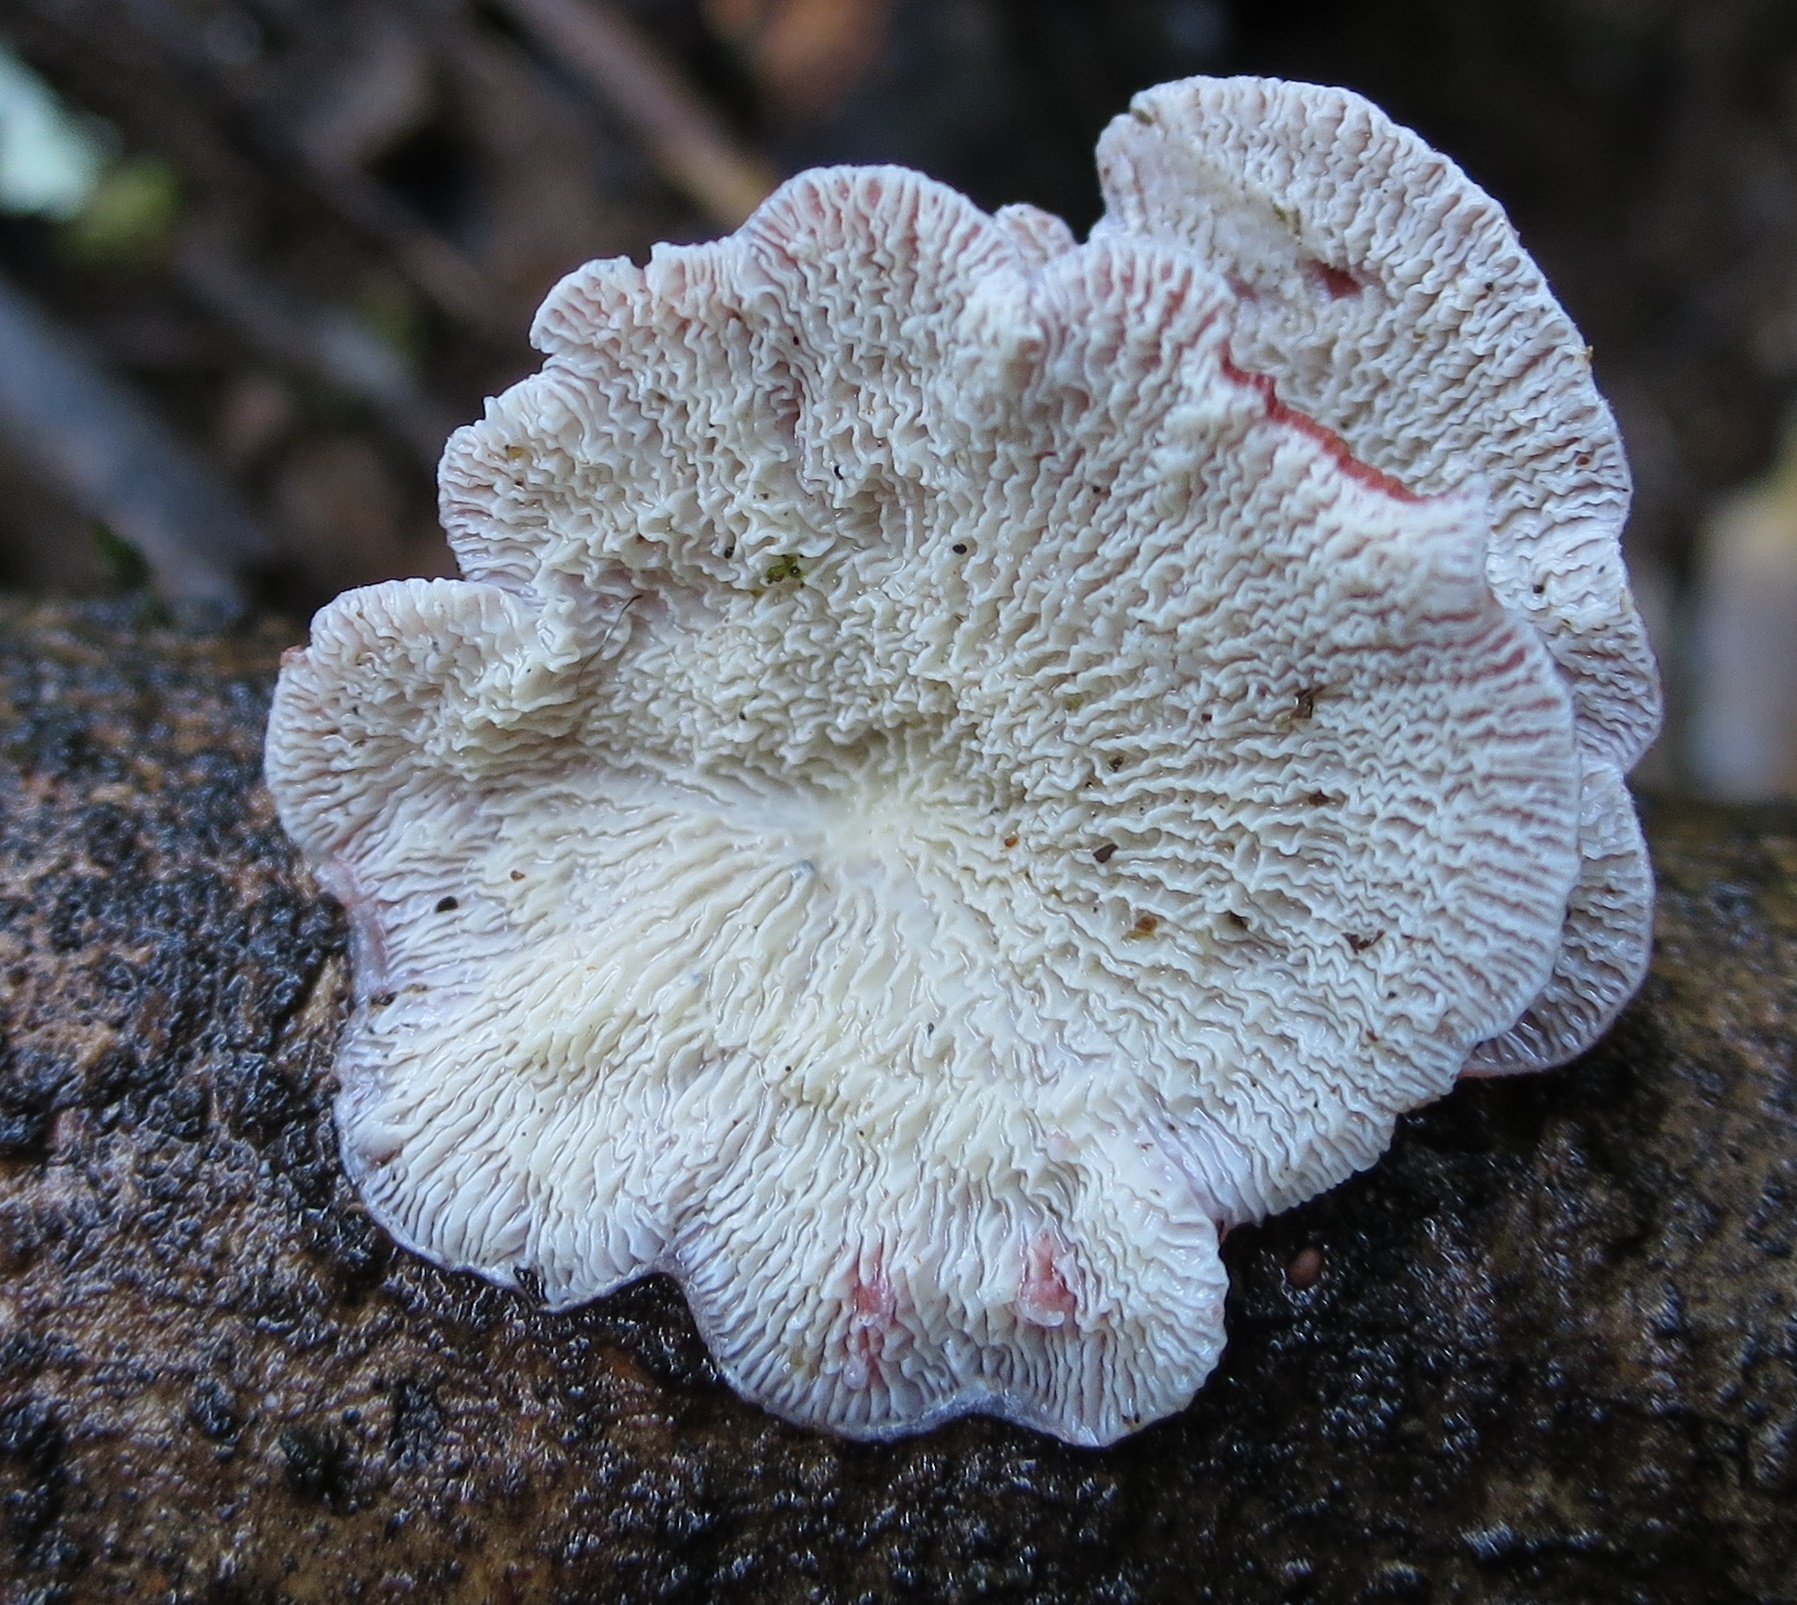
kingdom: Fungi
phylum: Basidiomycota
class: Agaricomycetes
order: Polyporales
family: Meruliaceae
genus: Phlebia
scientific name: Phlebia
